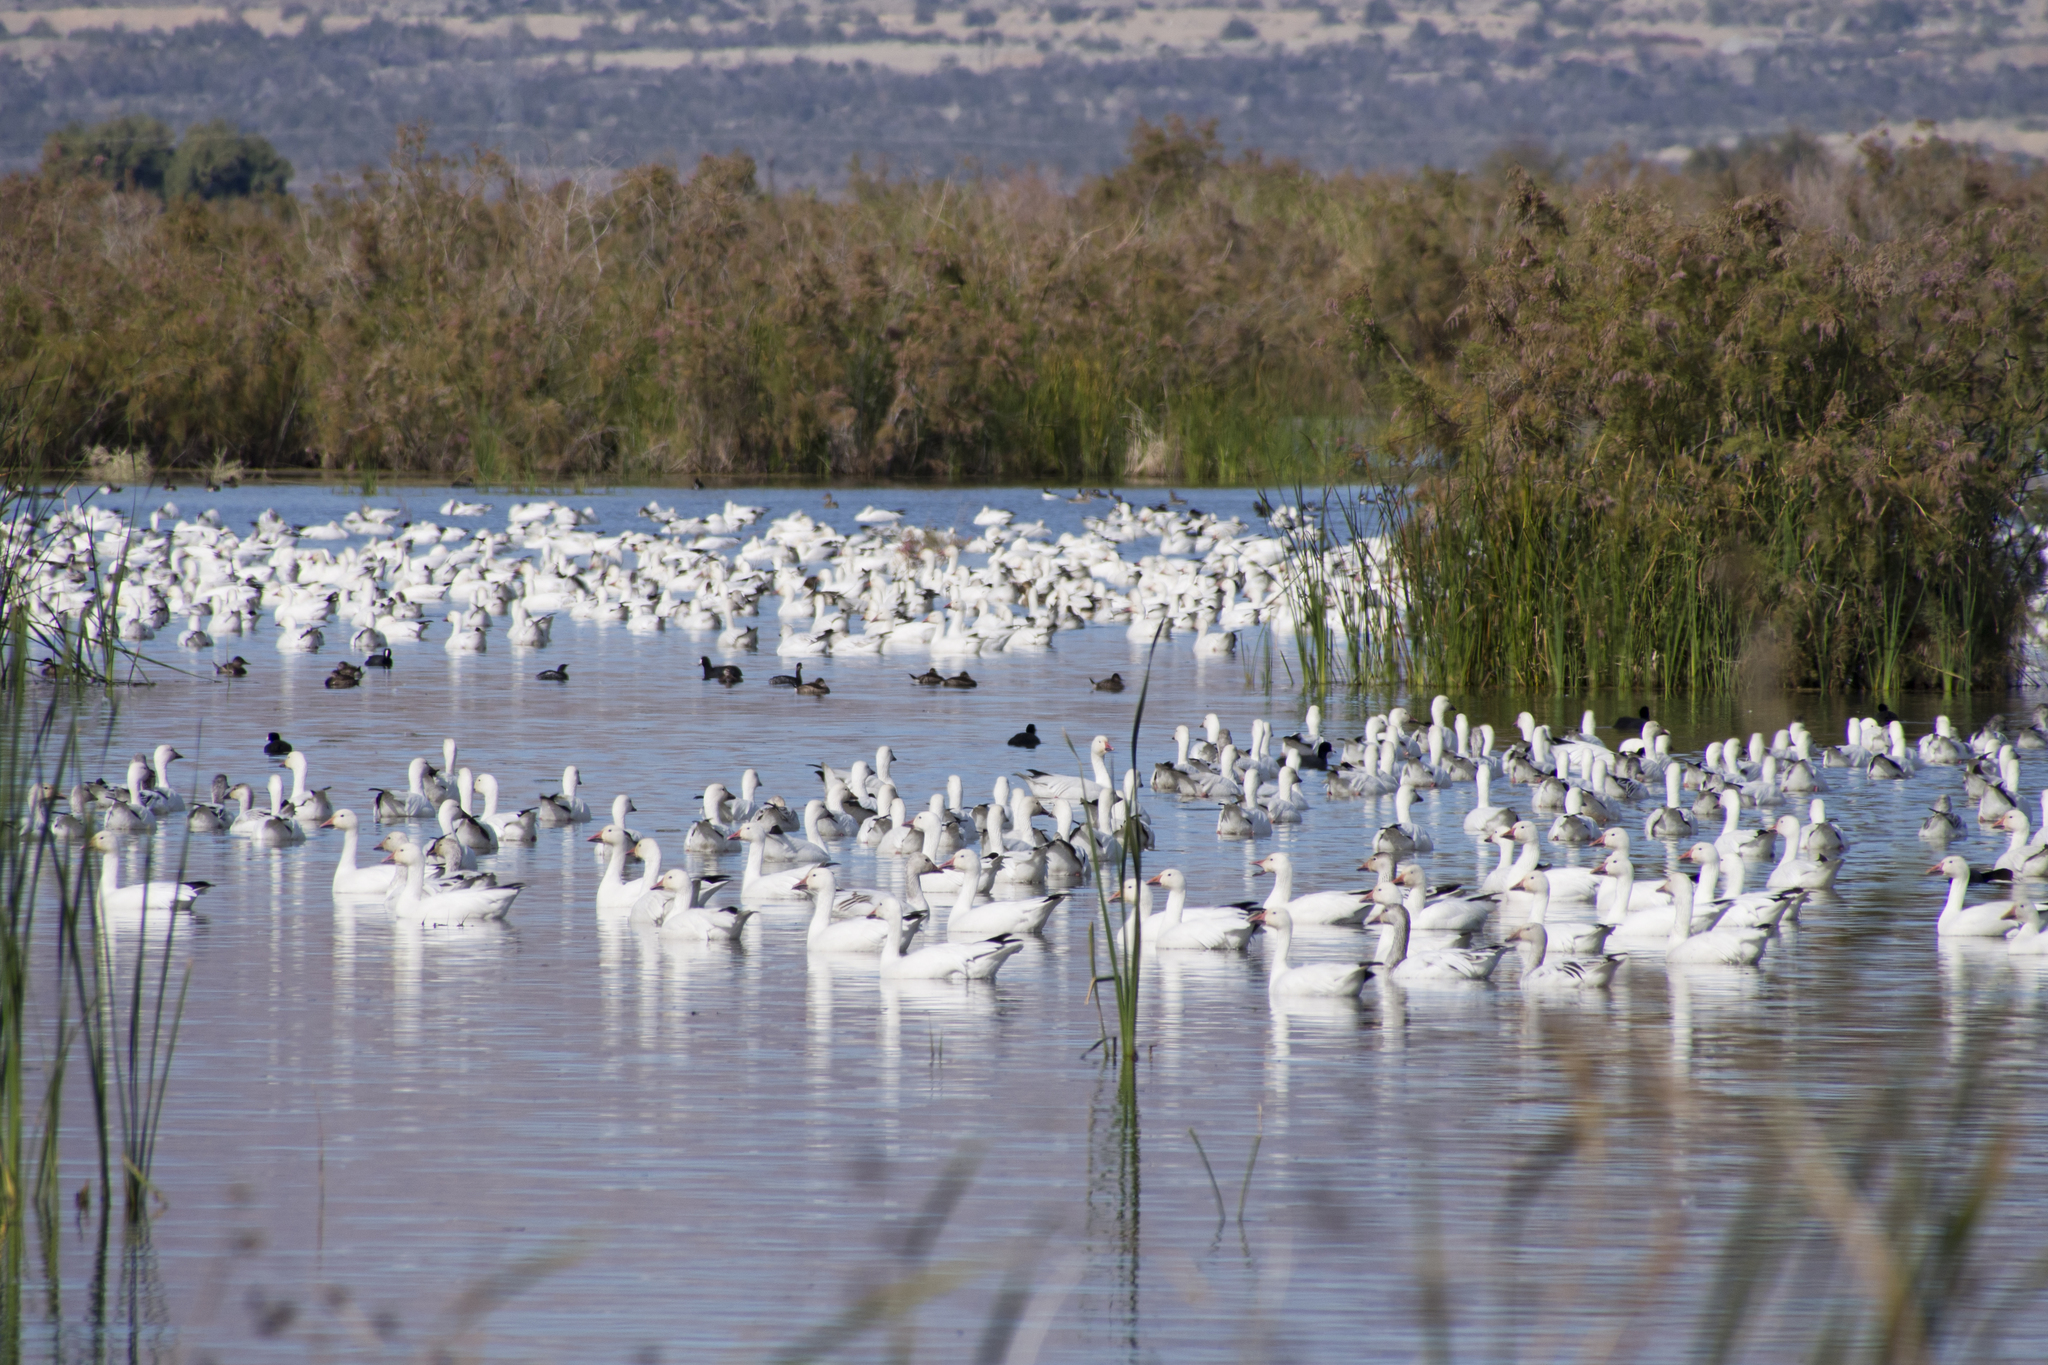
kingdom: Animalia
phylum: Chordata
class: Aves
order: Anseriformes
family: Anatidae
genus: Anser
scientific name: Anser caerulescens
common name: Snow goose
